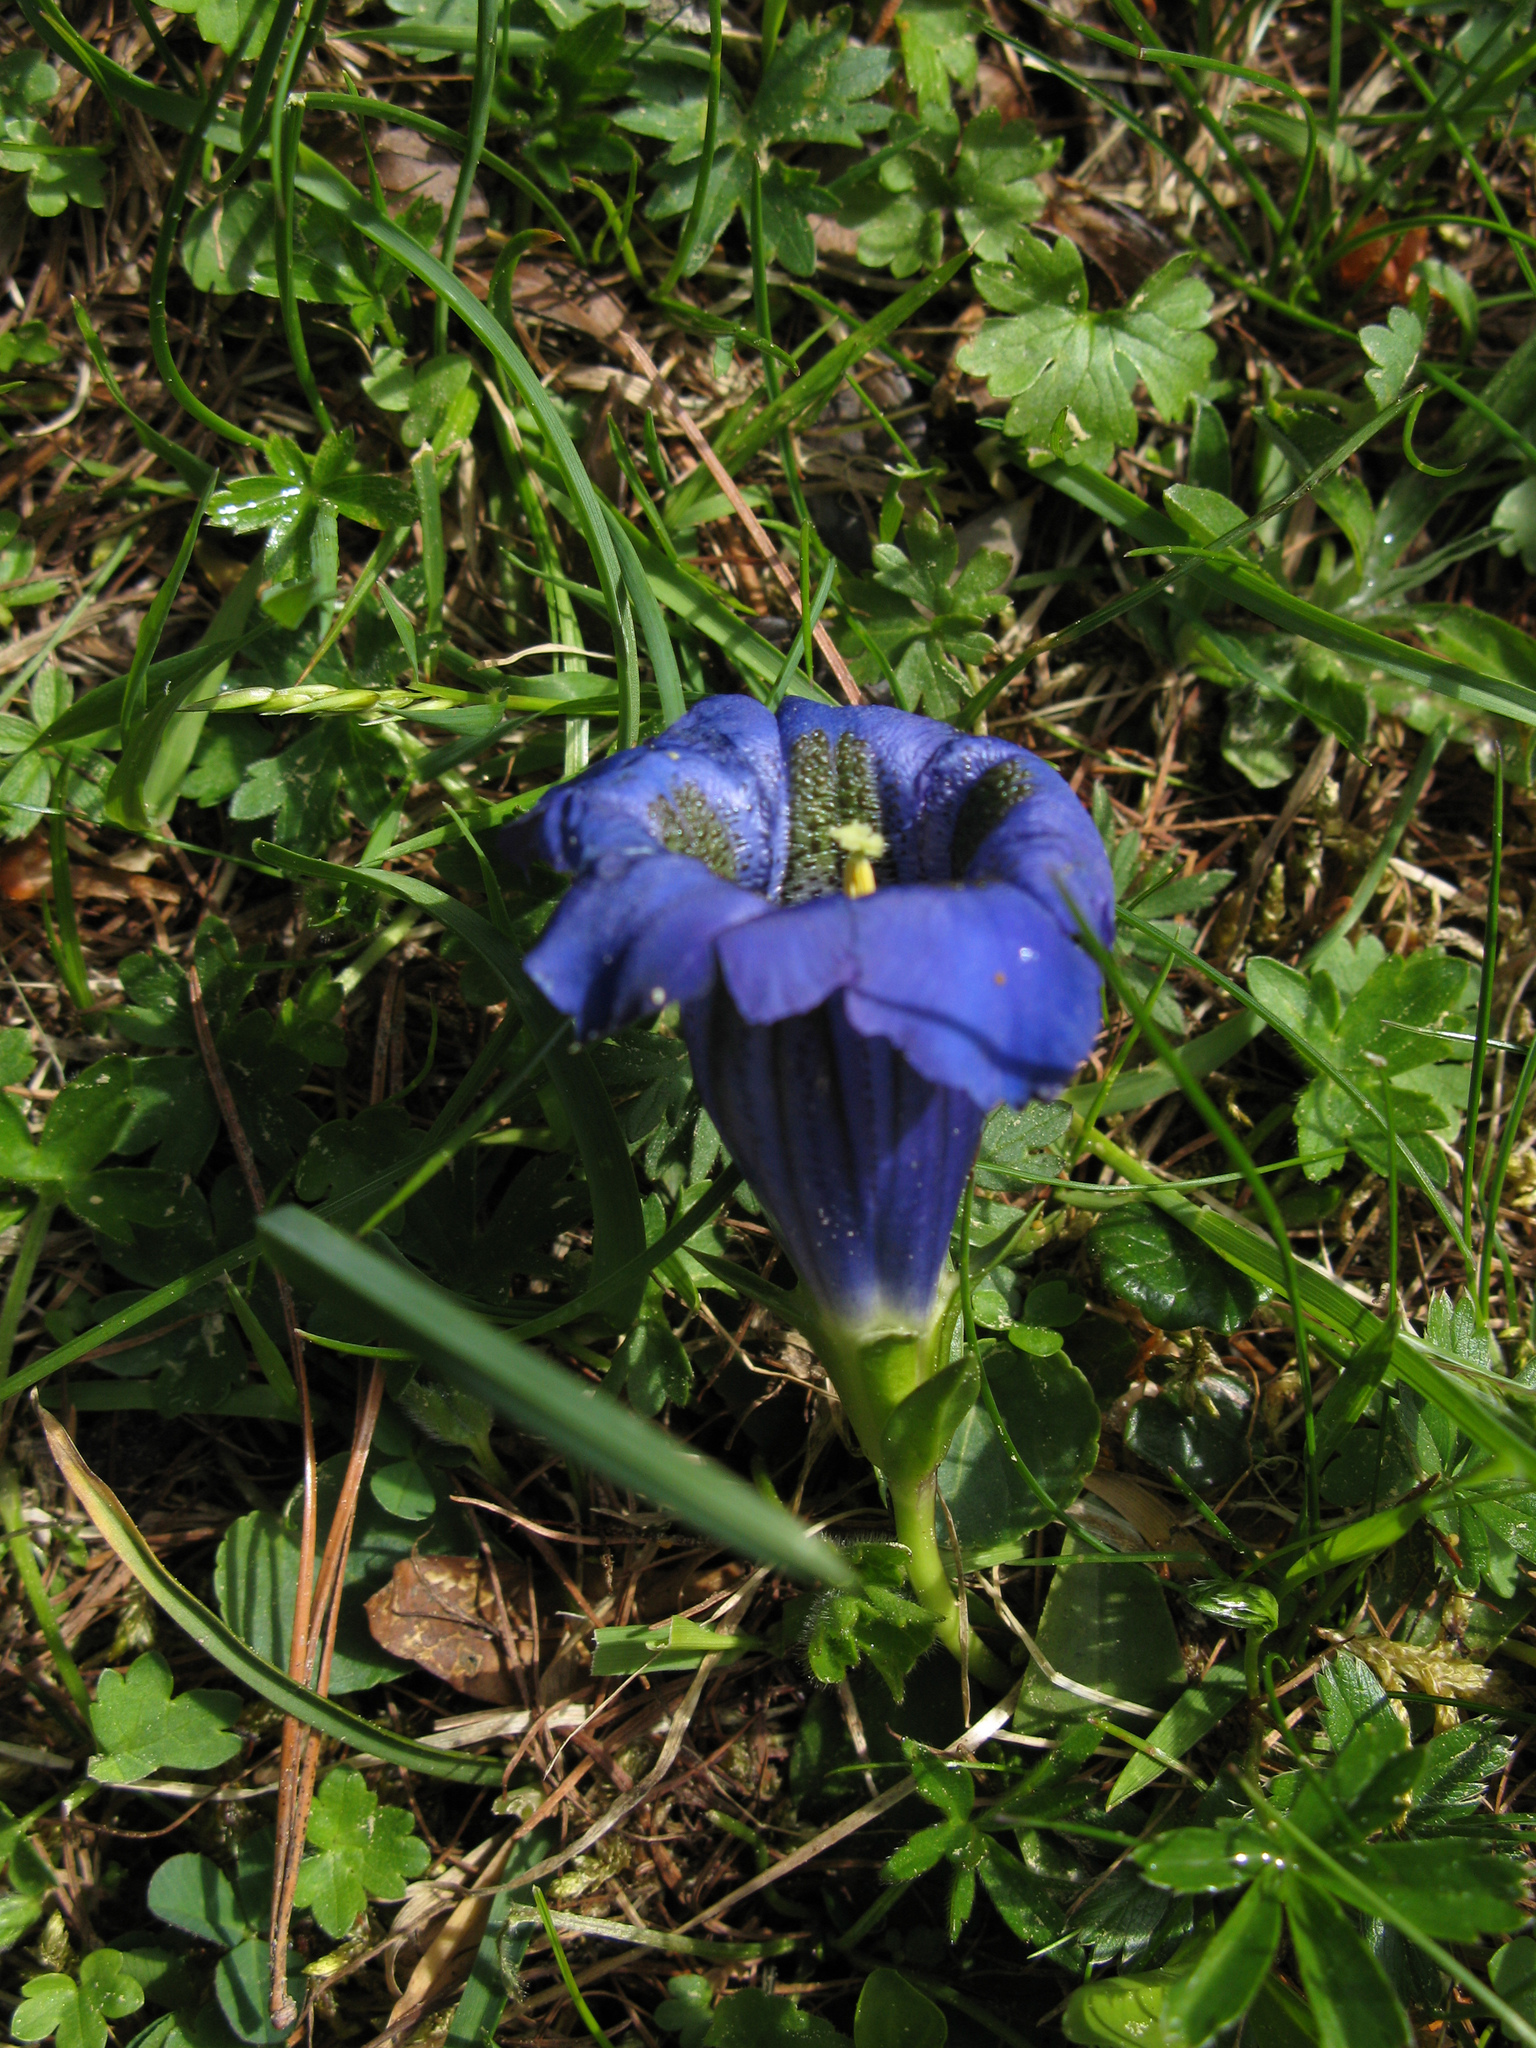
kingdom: Plantae
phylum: Tracheophyta
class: Magnoliopsida
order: Gentianales
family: Gentianaceae
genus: Gentiana
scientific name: Gentiana acaulis
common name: Trumpet gentian
